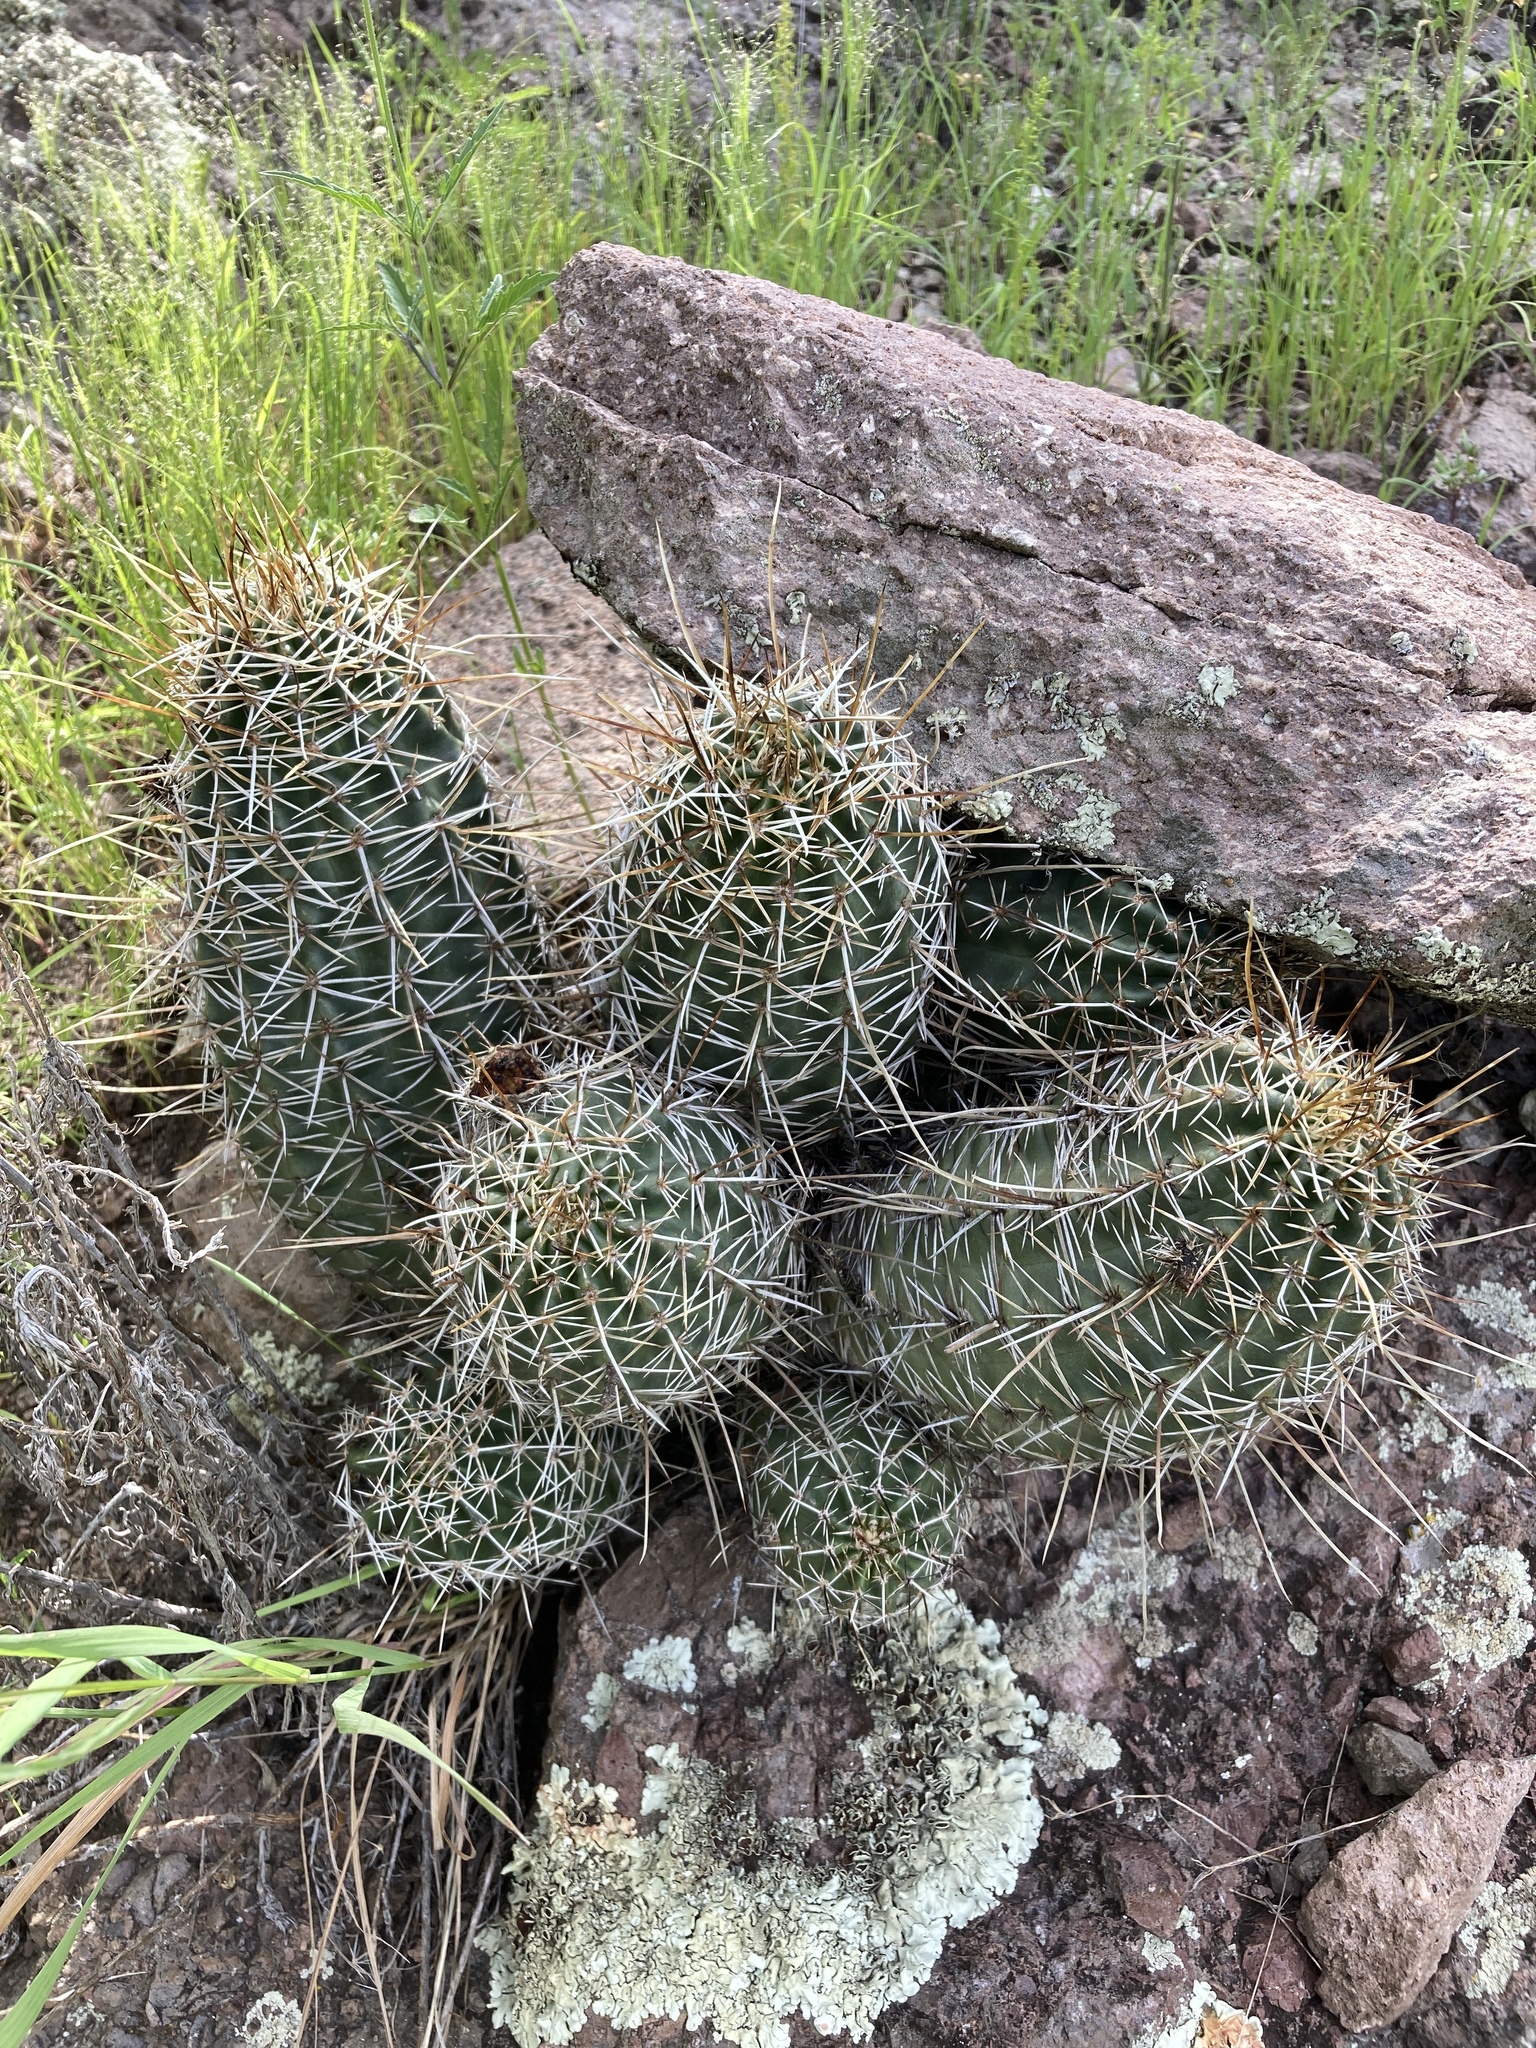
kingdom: Plantae
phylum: Tracheophyta
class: Magnoliopsida
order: Caryophyllales
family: Cactaceae
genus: Echinocereus
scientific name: Echinocereus fendleri
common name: Fendler's hedgehog cactus
